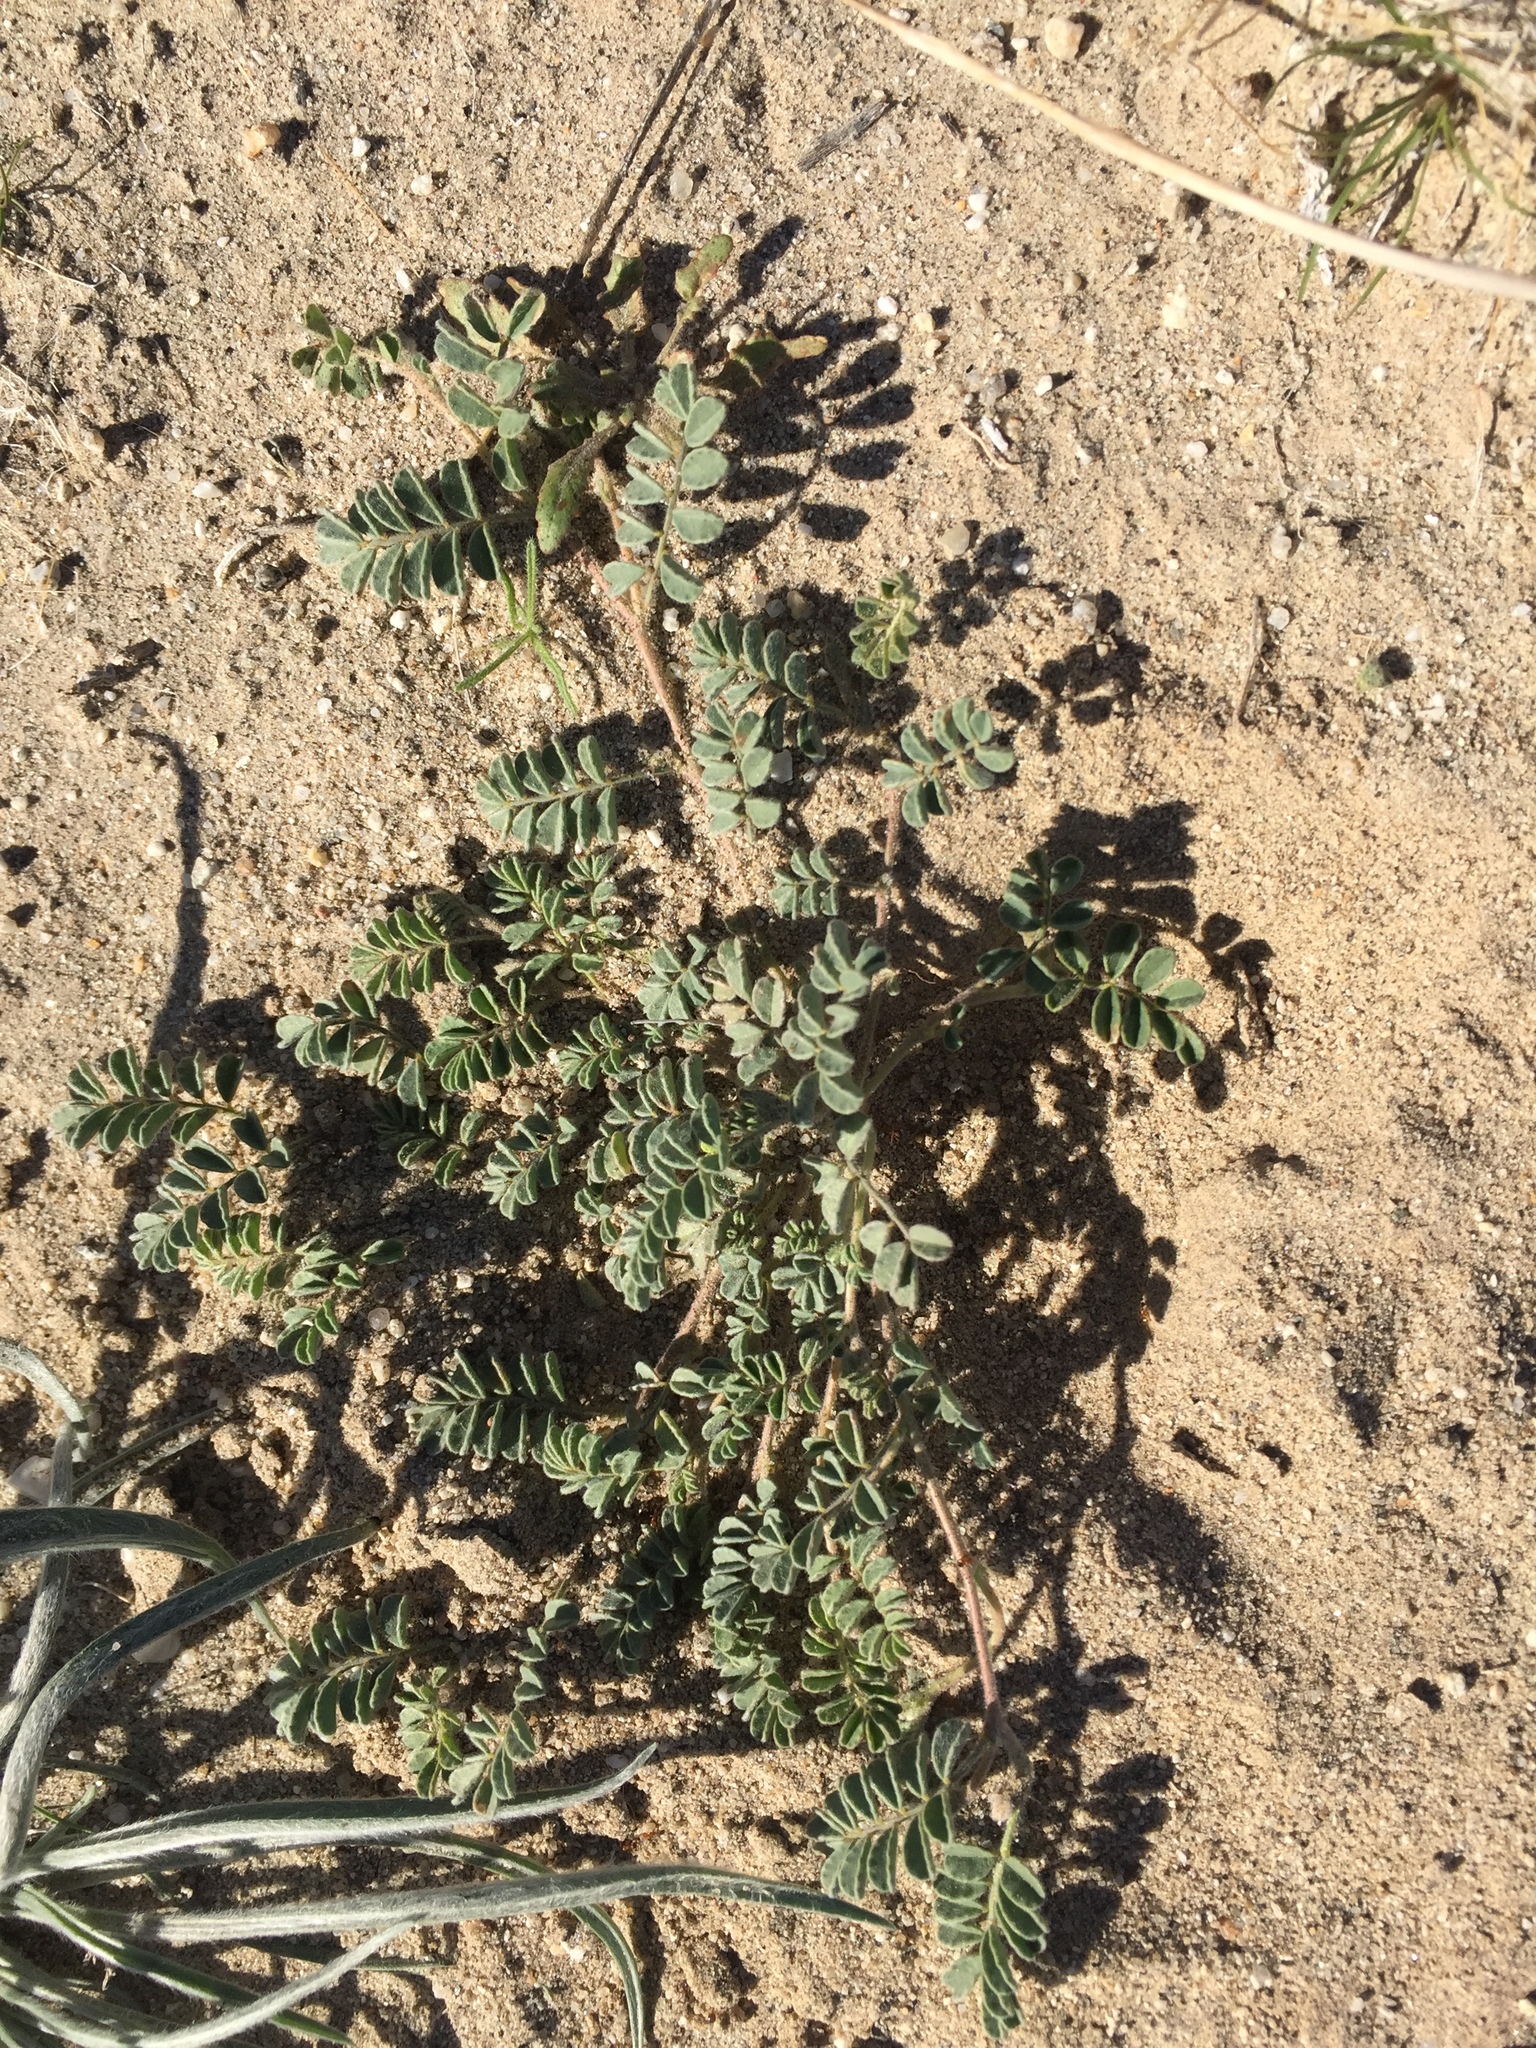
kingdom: Plantae
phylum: Tracheophyta
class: Magnoliopsida
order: Fabales
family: Fabaceae
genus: Dalea
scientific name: Dalea mollis
